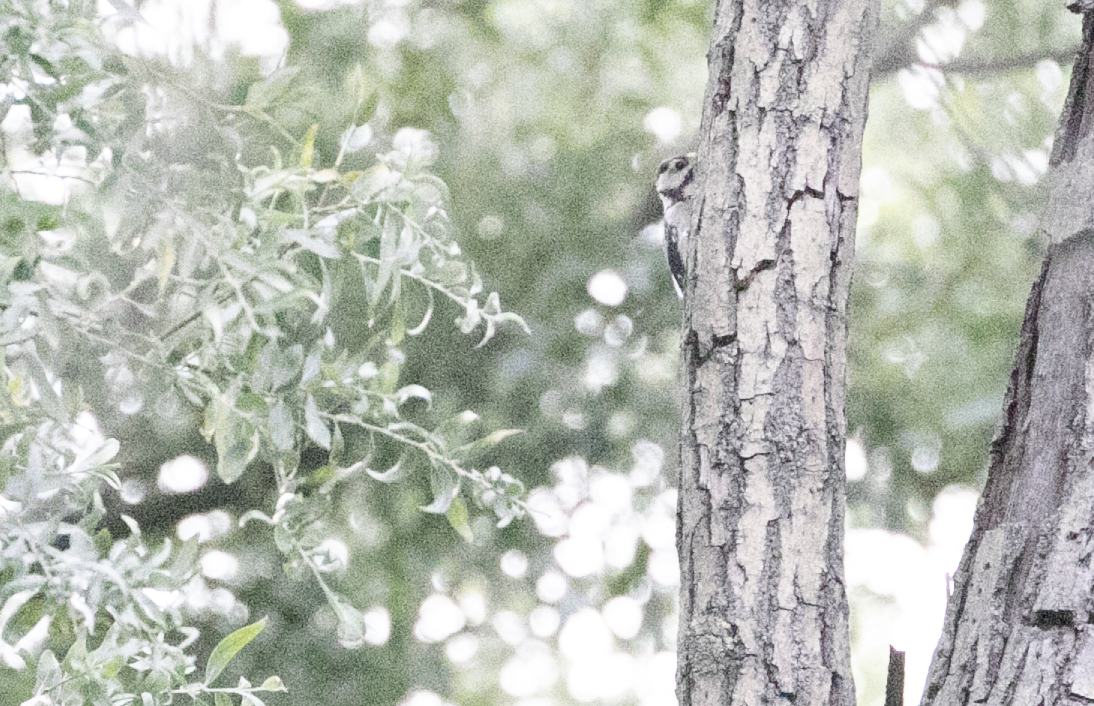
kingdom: Animalia
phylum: Chordata
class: Aves
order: Piciformes
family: Picidae
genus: Dendrocopos
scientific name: Dendrocopos major
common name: Great spotted woodpecker
